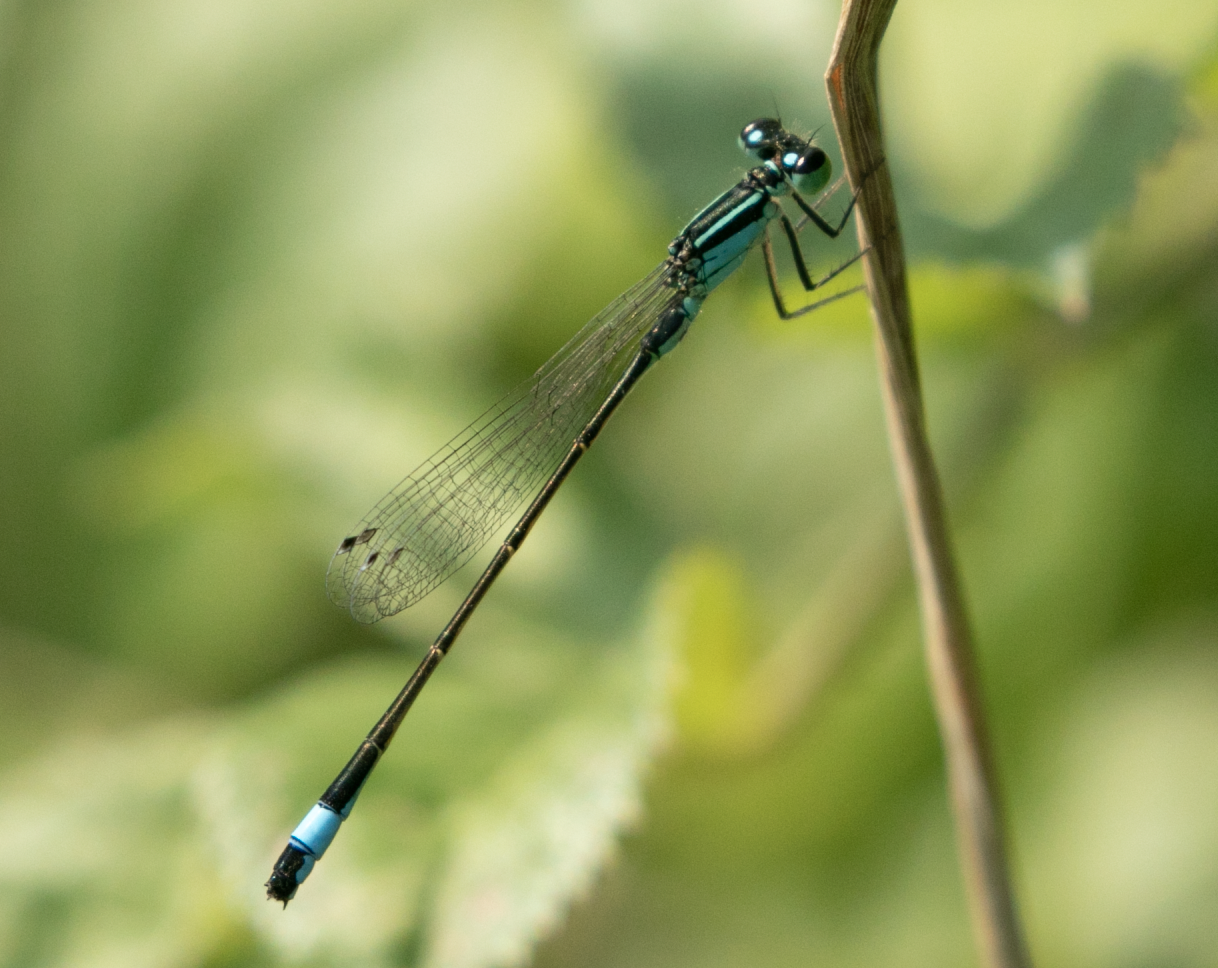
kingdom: Animalia
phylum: Arthropoda
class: Insecta
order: Odonata
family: Coenagrionidae
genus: Ischnura
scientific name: Ischnura elegans
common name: Blue-tailed damselfly
